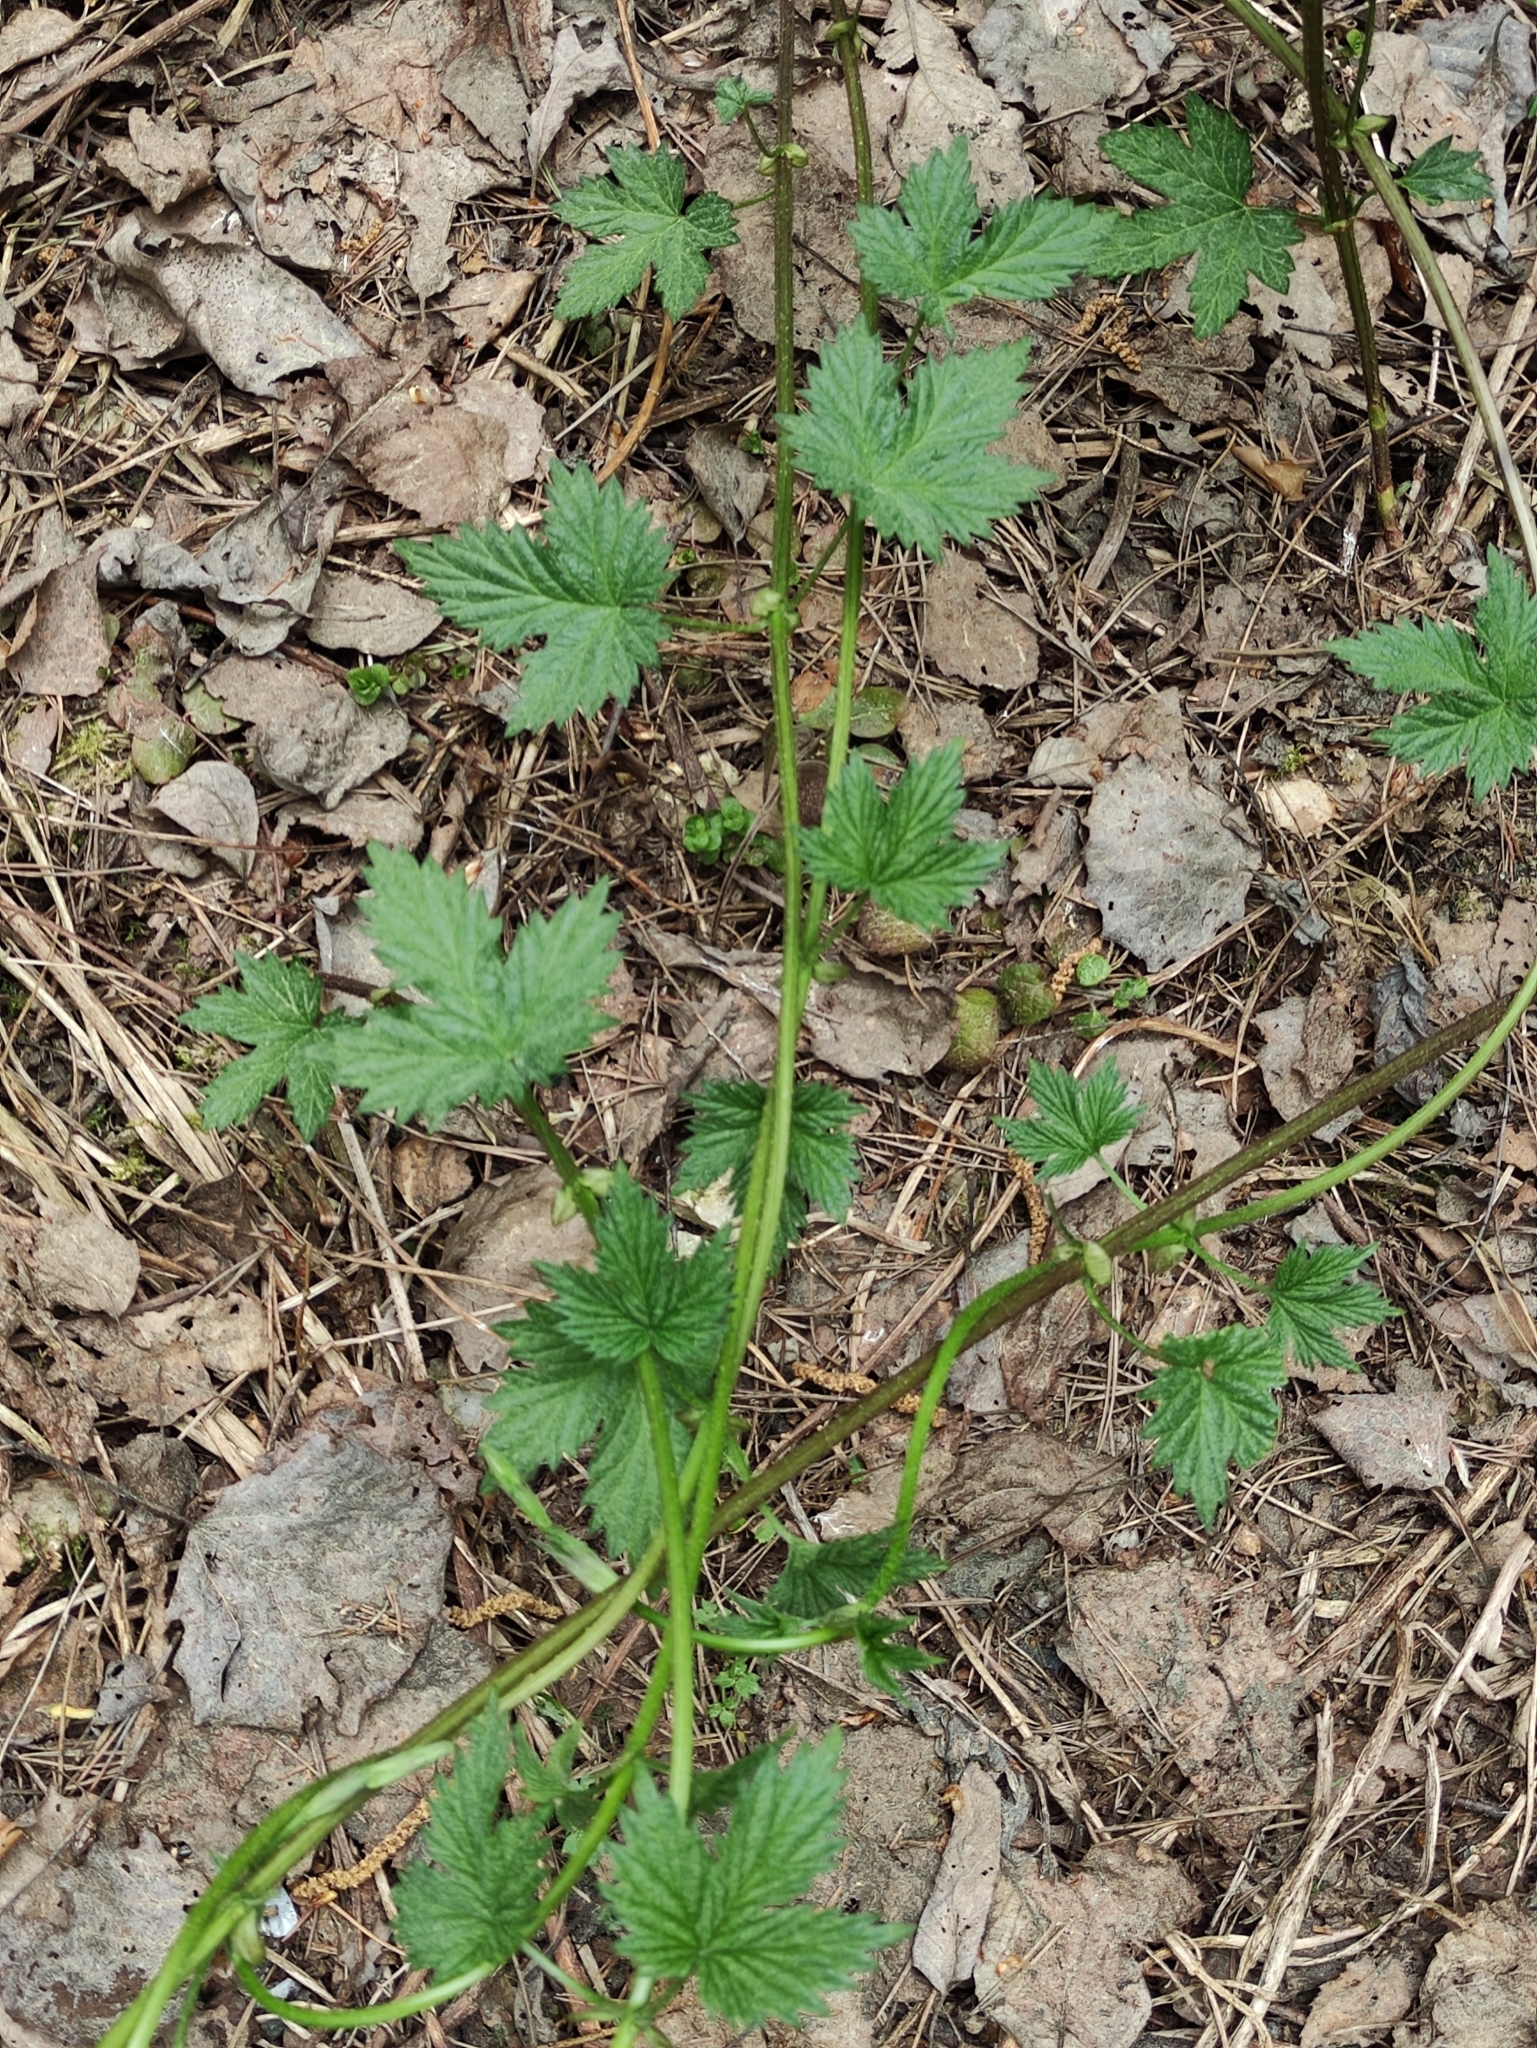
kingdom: Plantae
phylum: Tracheophyta
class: Magnoliopsida
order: Rosales
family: Cannabaceae
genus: Humulus
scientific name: Humulus lupulus
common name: Hop
